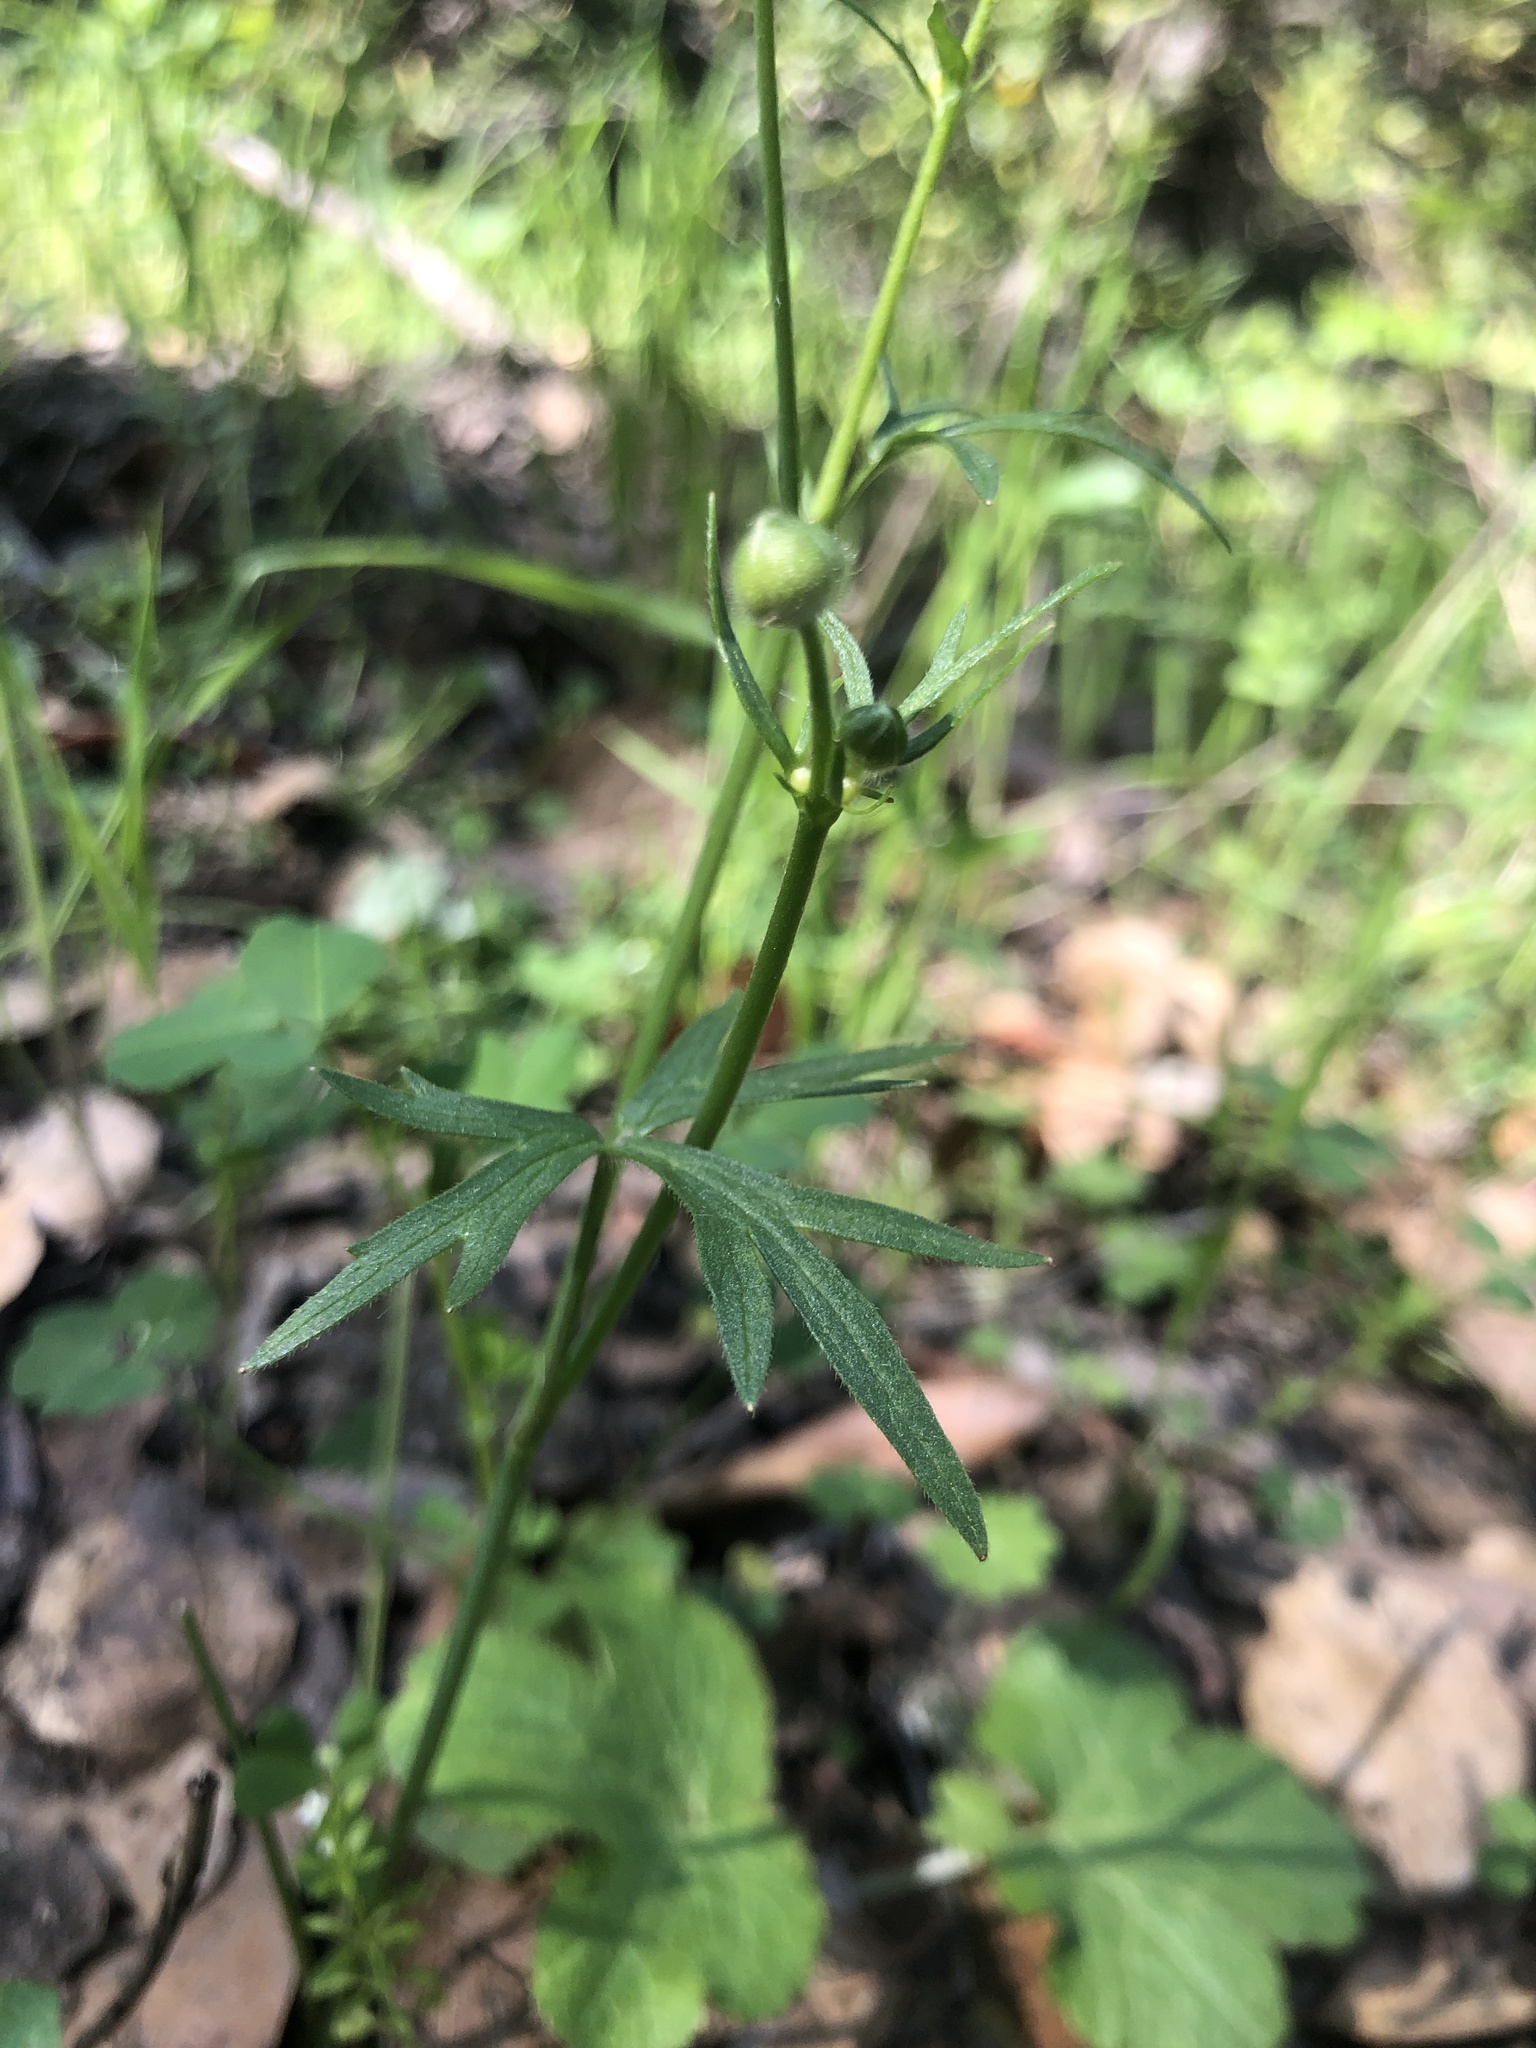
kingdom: Plantae
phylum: Tracheophyta
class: Magnoliopsida
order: Ranunculales
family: Ranunculaceae
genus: Ranunculus
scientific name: Ranunculus californicus
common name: California buttercup
